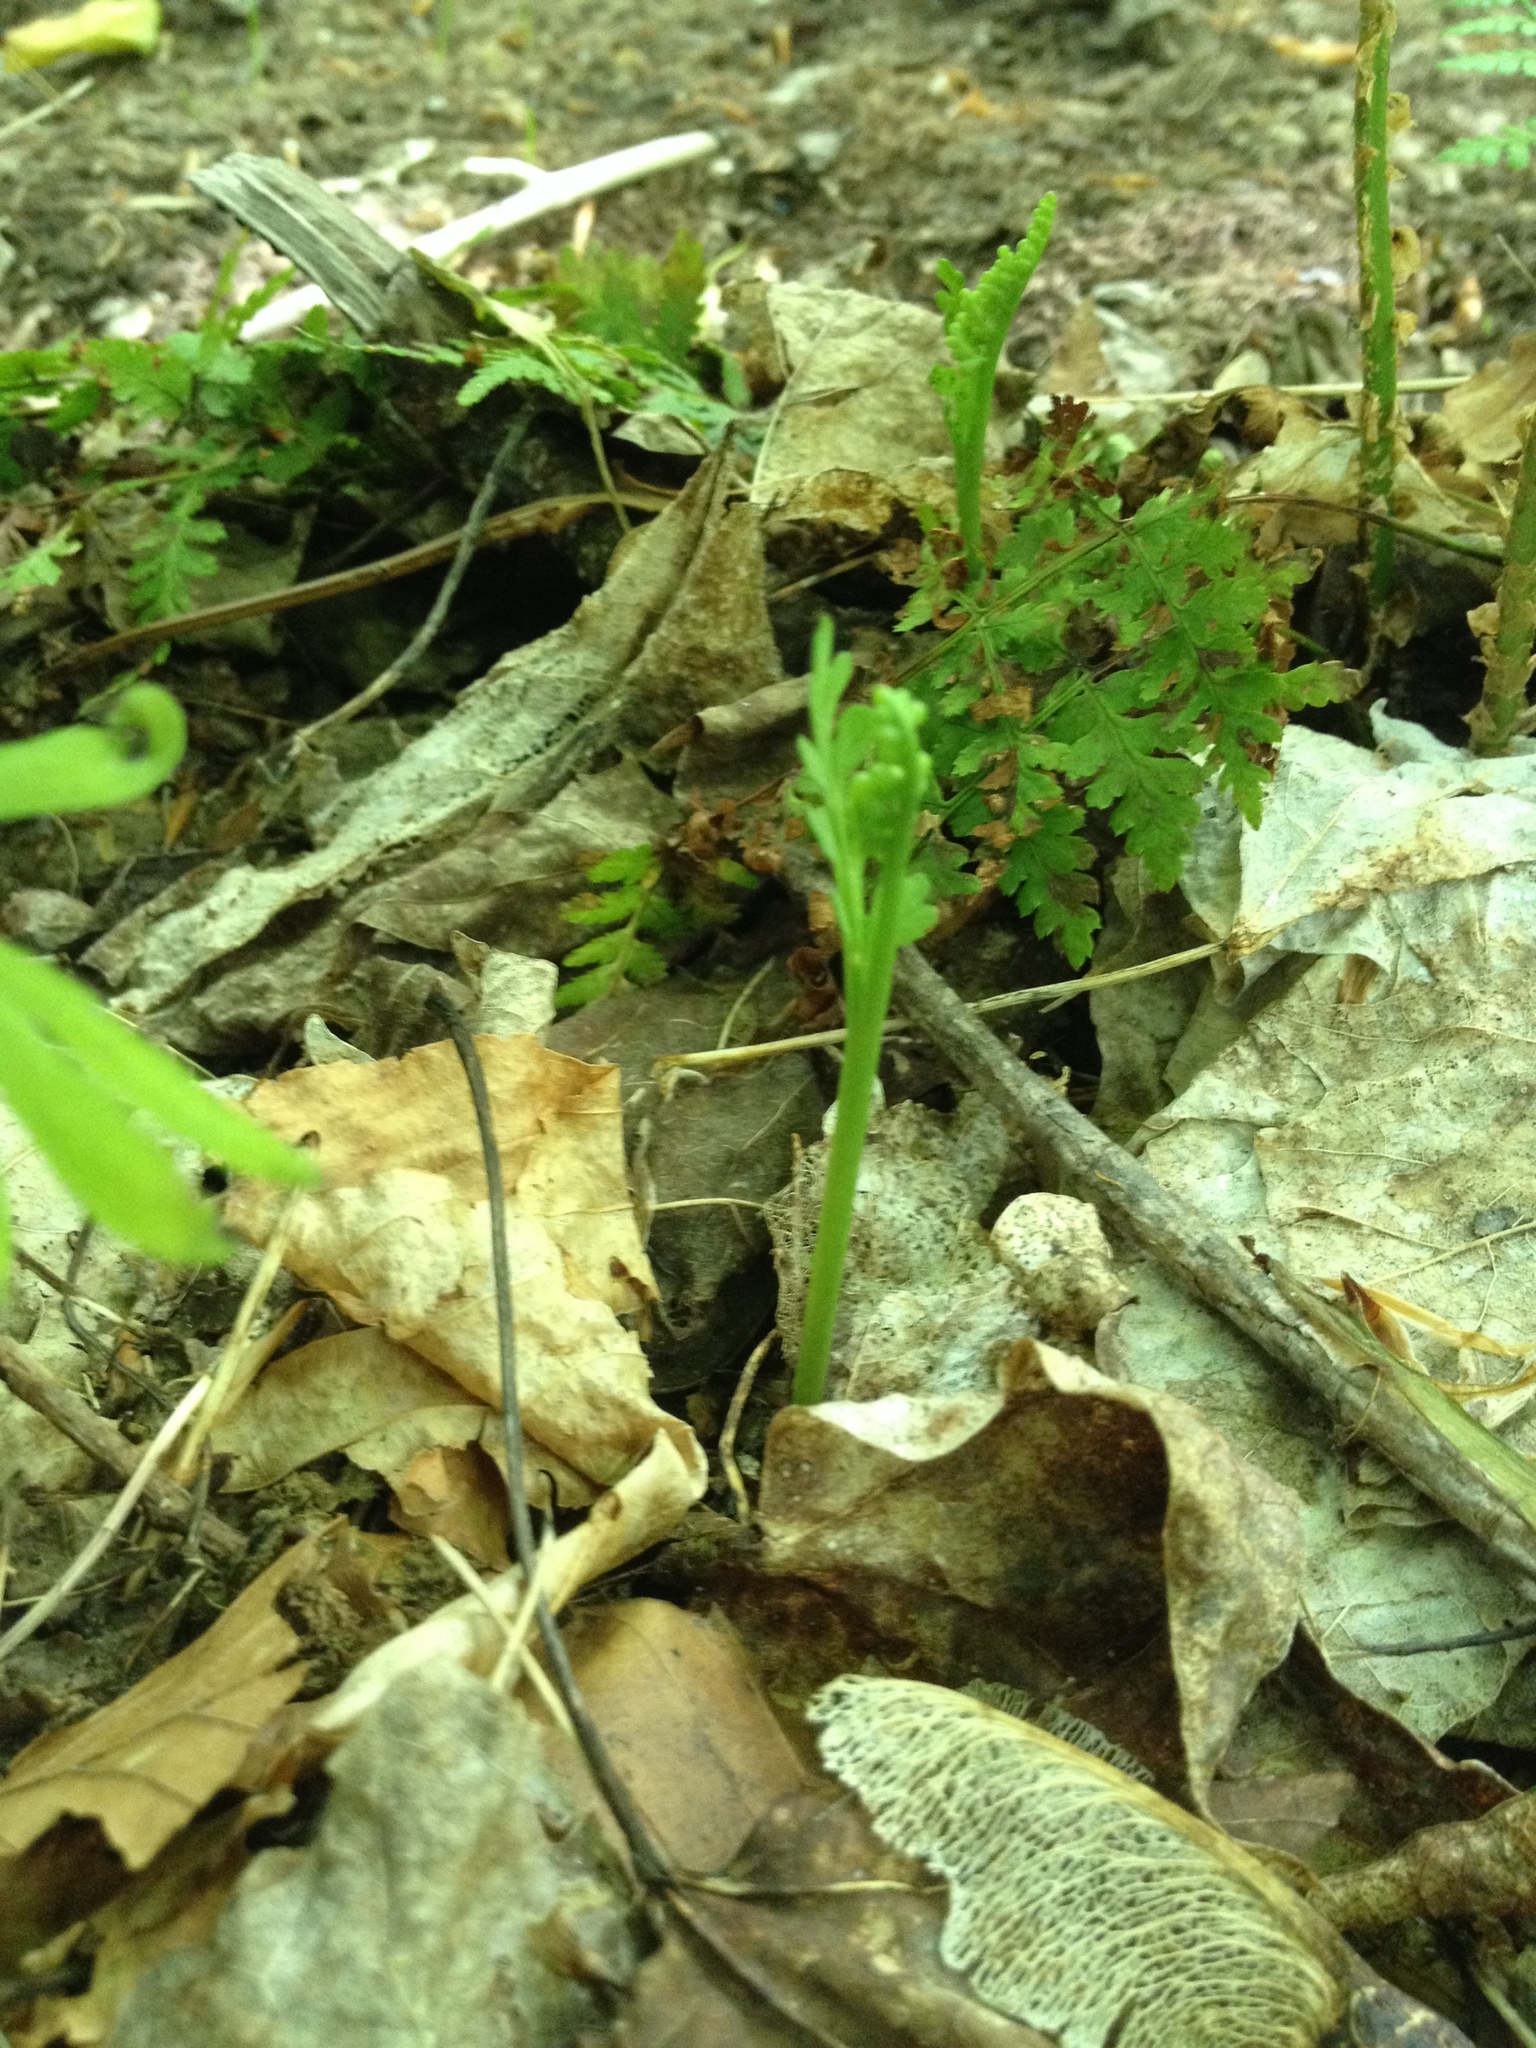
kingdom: Plantae
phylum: Tracheophyta
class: Polypodiopsida
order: Ophioglossales
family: Ophioglossaceae
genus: Botrychium
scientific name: Botrychium matricariifolium
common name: Branched moonwort
